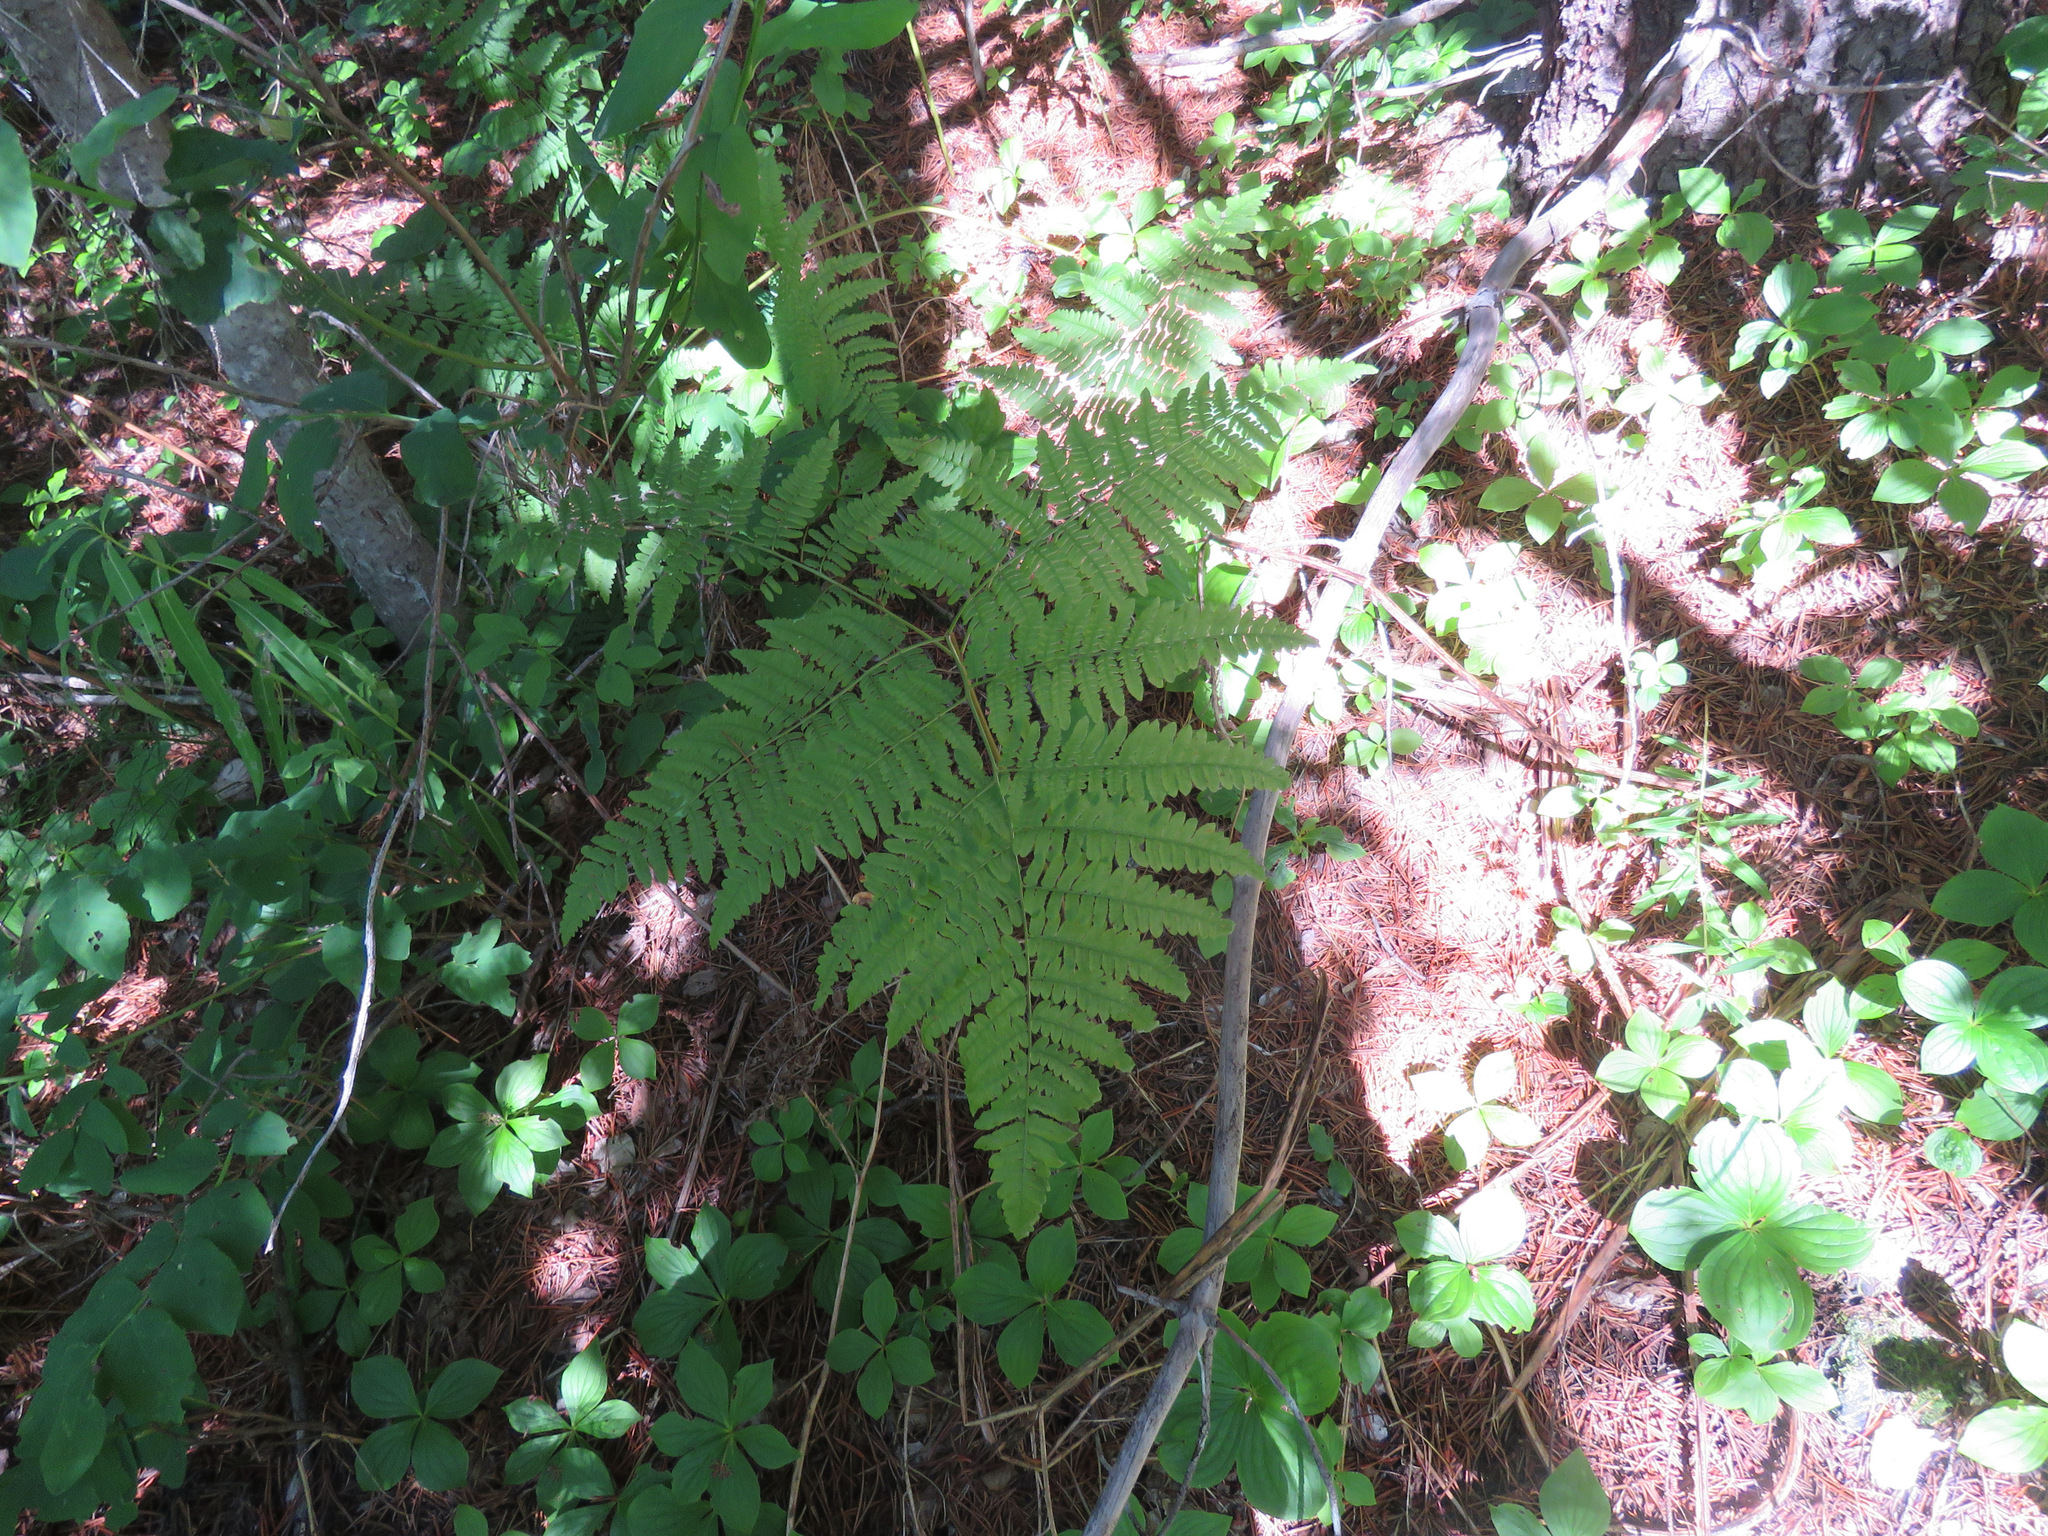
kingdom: Plantae
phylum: Tracheophyta
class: Polypodiopsida
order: Polypodiales
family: Dennstaedtiaceae
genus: Pteridium
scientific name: Pteridium aquilinum
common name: Bracken
